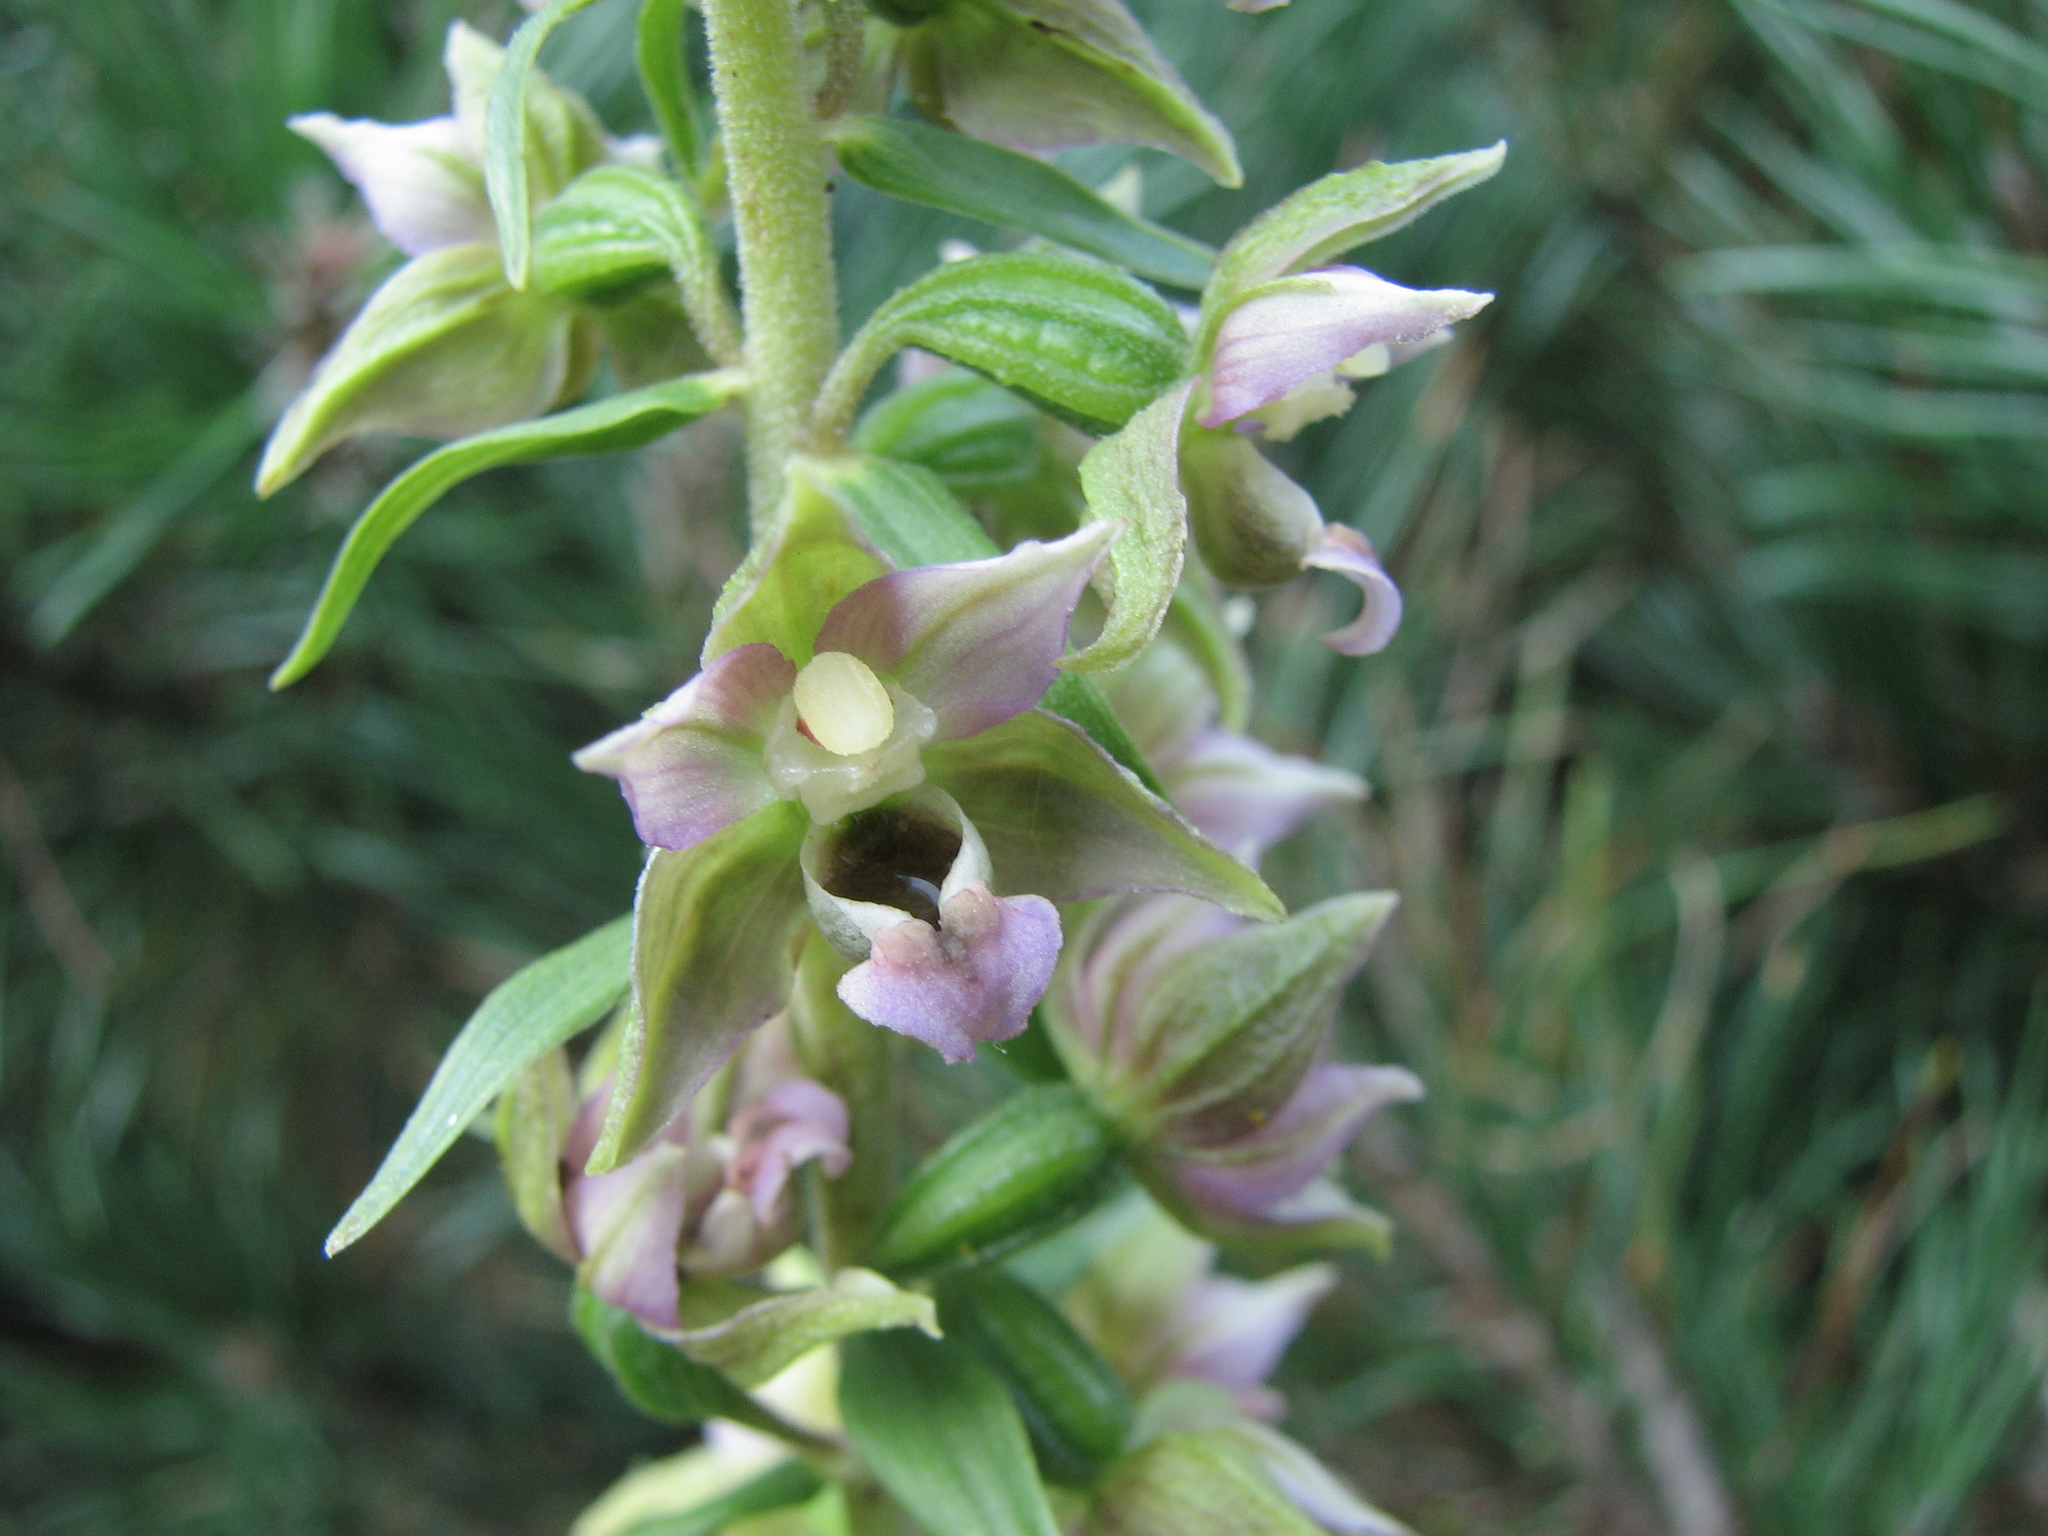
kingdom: Plantae
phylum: Tracheophyta
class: Liliopsida
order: Asparagales
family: Orchidaceae
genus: Epipactis
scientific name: Epipactis helleborine
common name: Broad-leaved helleborine
